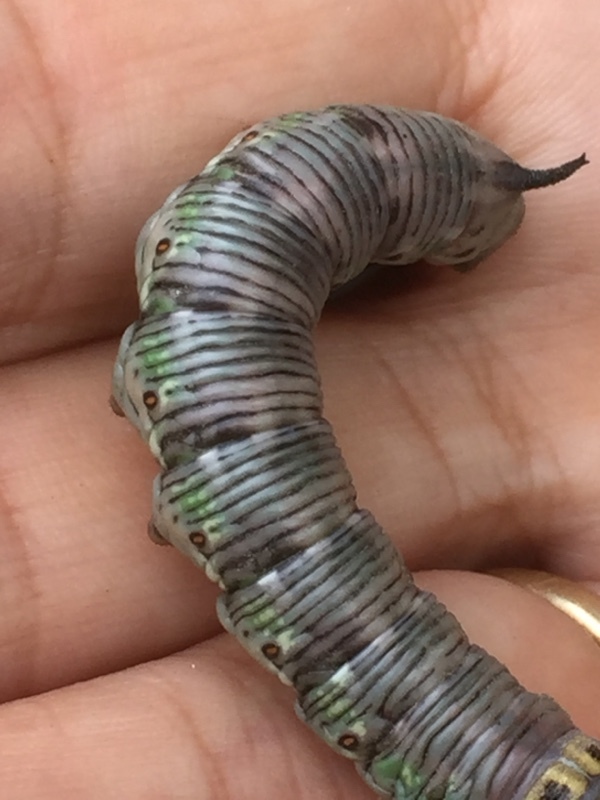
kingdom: Animalia
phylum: Arthropoda
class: Insecta
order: Lepidoptera
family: Sphingidae
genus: Sphinx
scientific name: Sphinx pinastri
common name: Pine hawk-moth
